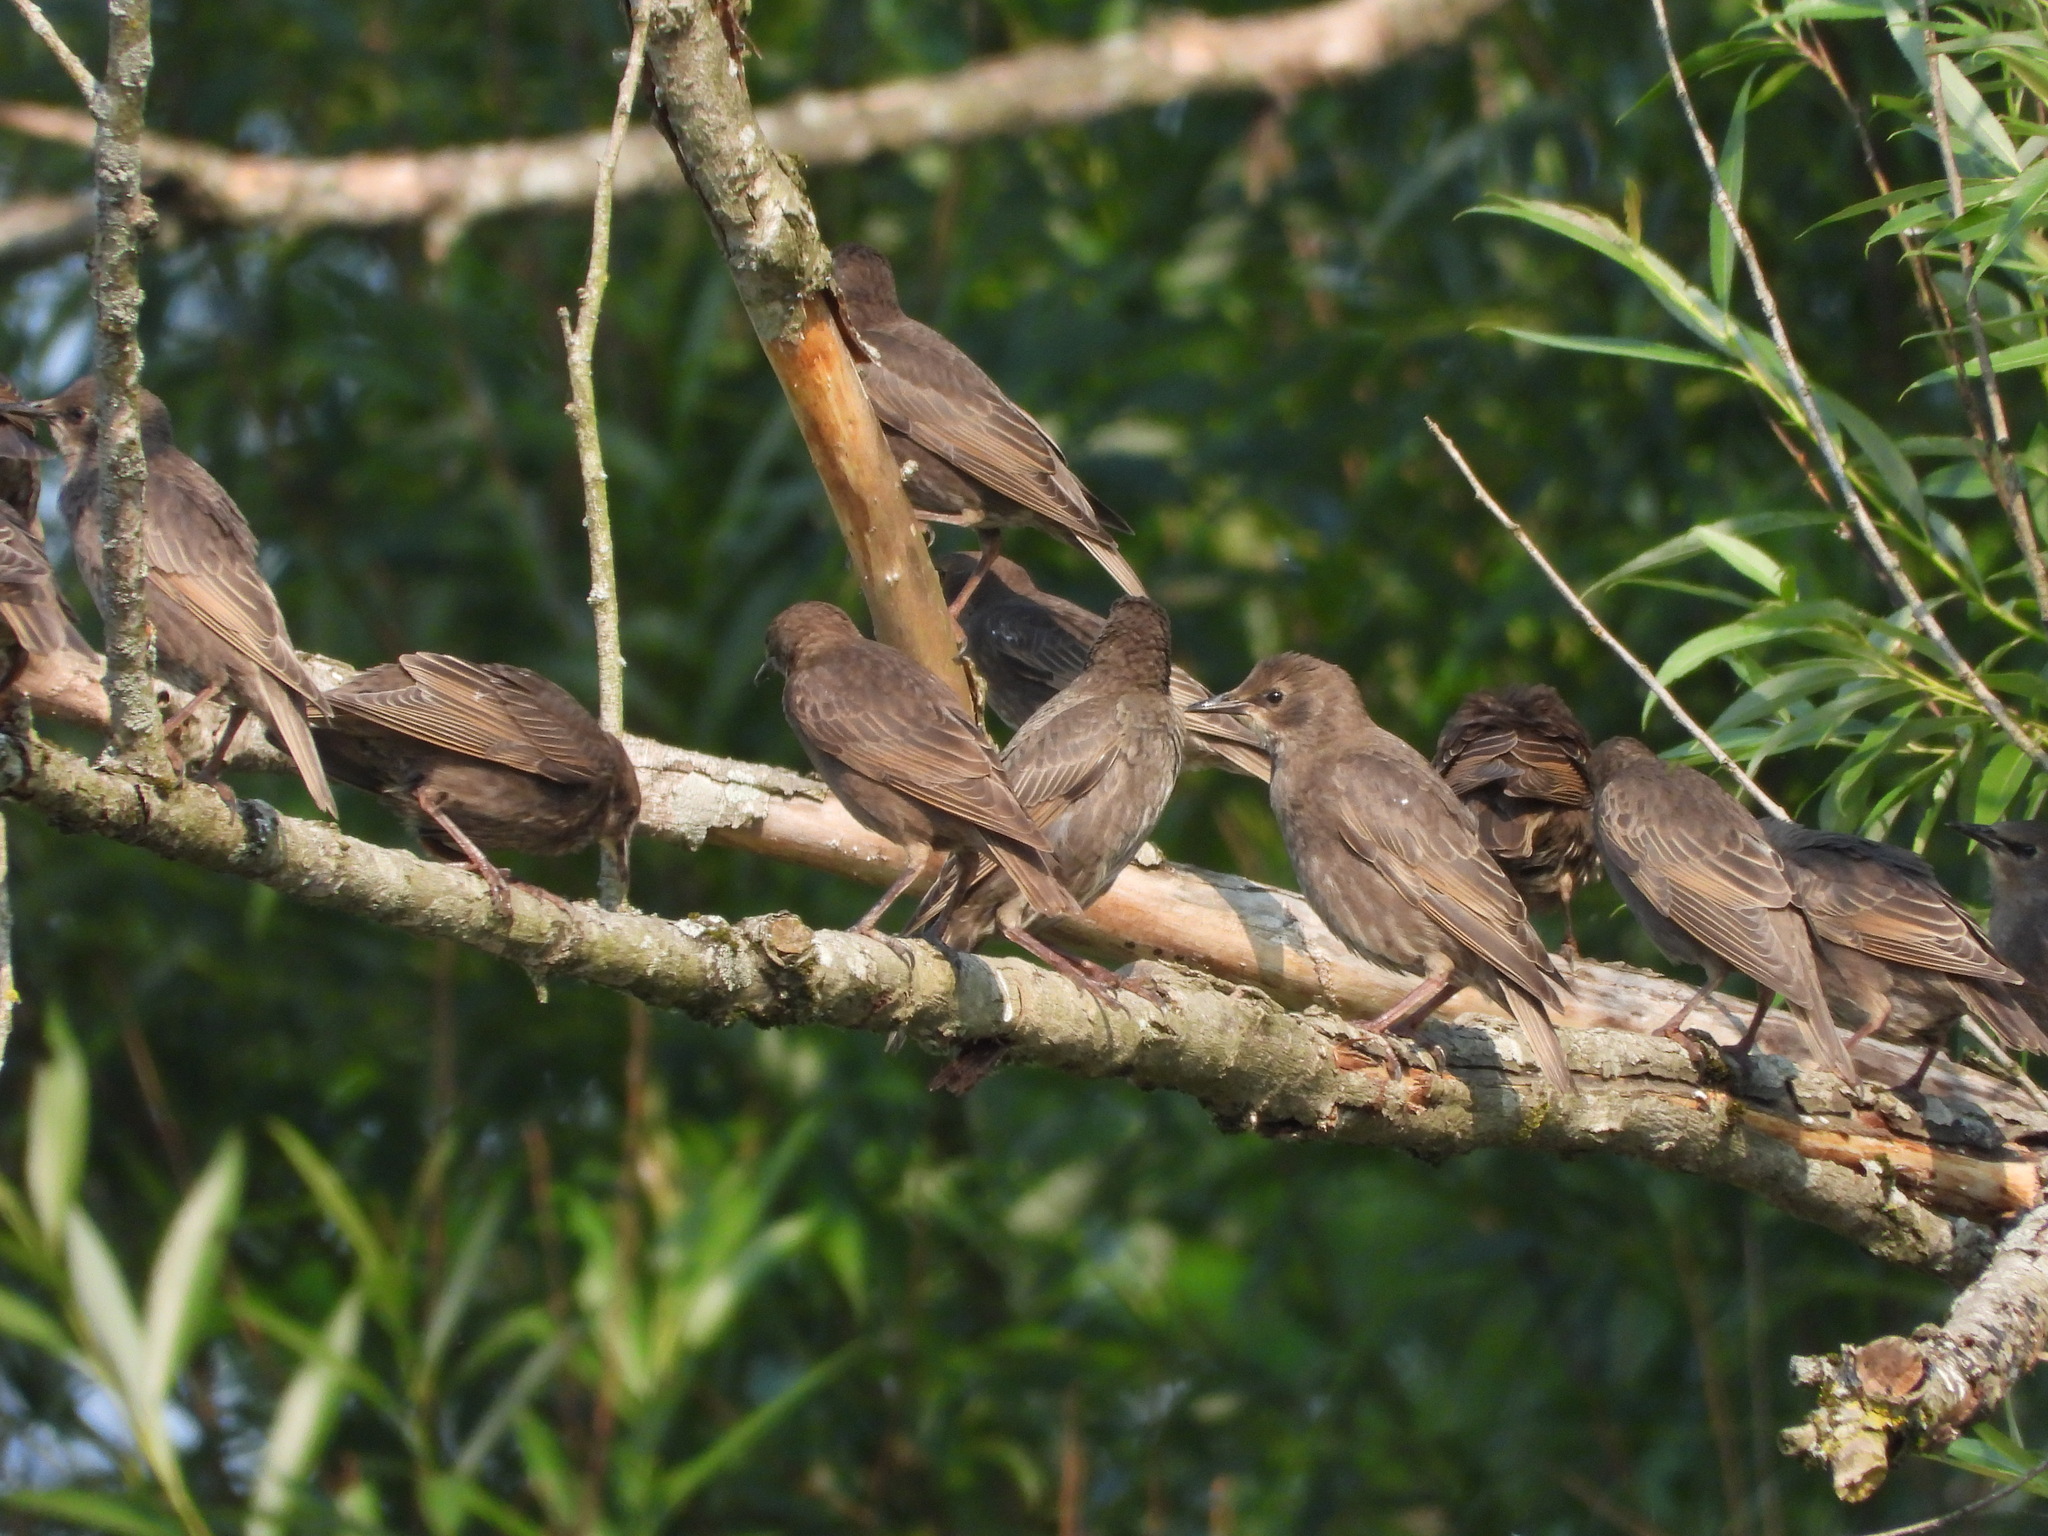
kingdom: Animalia
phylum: Chordata
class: Aves
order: Passeriformes
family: Sturnidae
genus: Sturnus
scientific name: Sturnus vulgaris
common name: Common starling
